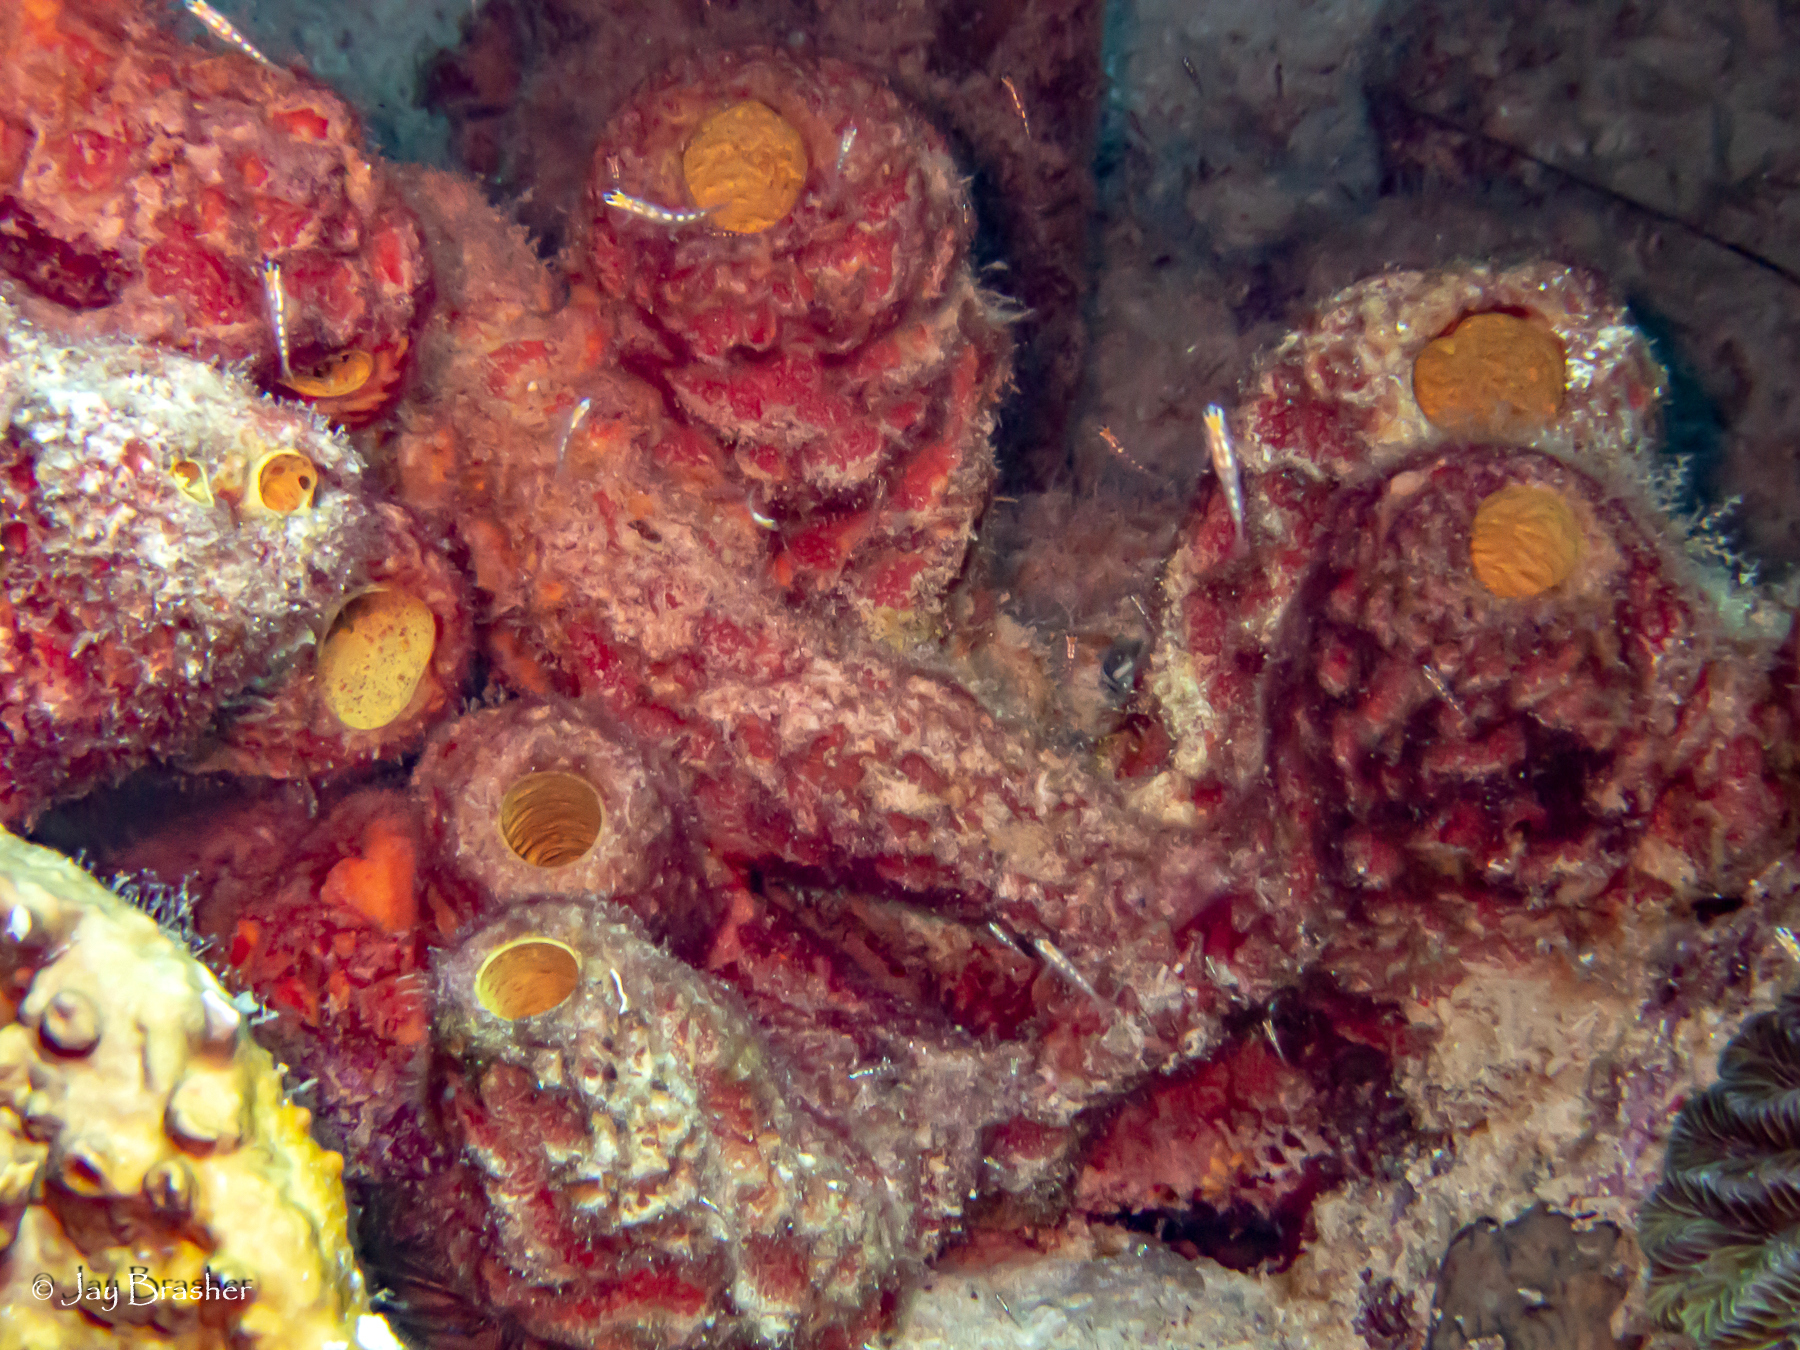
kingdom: Animalia
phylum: Porifera
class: Demospongiae
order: Verongiida
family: Aplysinidae
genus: Verongula
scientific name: Verongula rigida
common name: Pitted sponge
